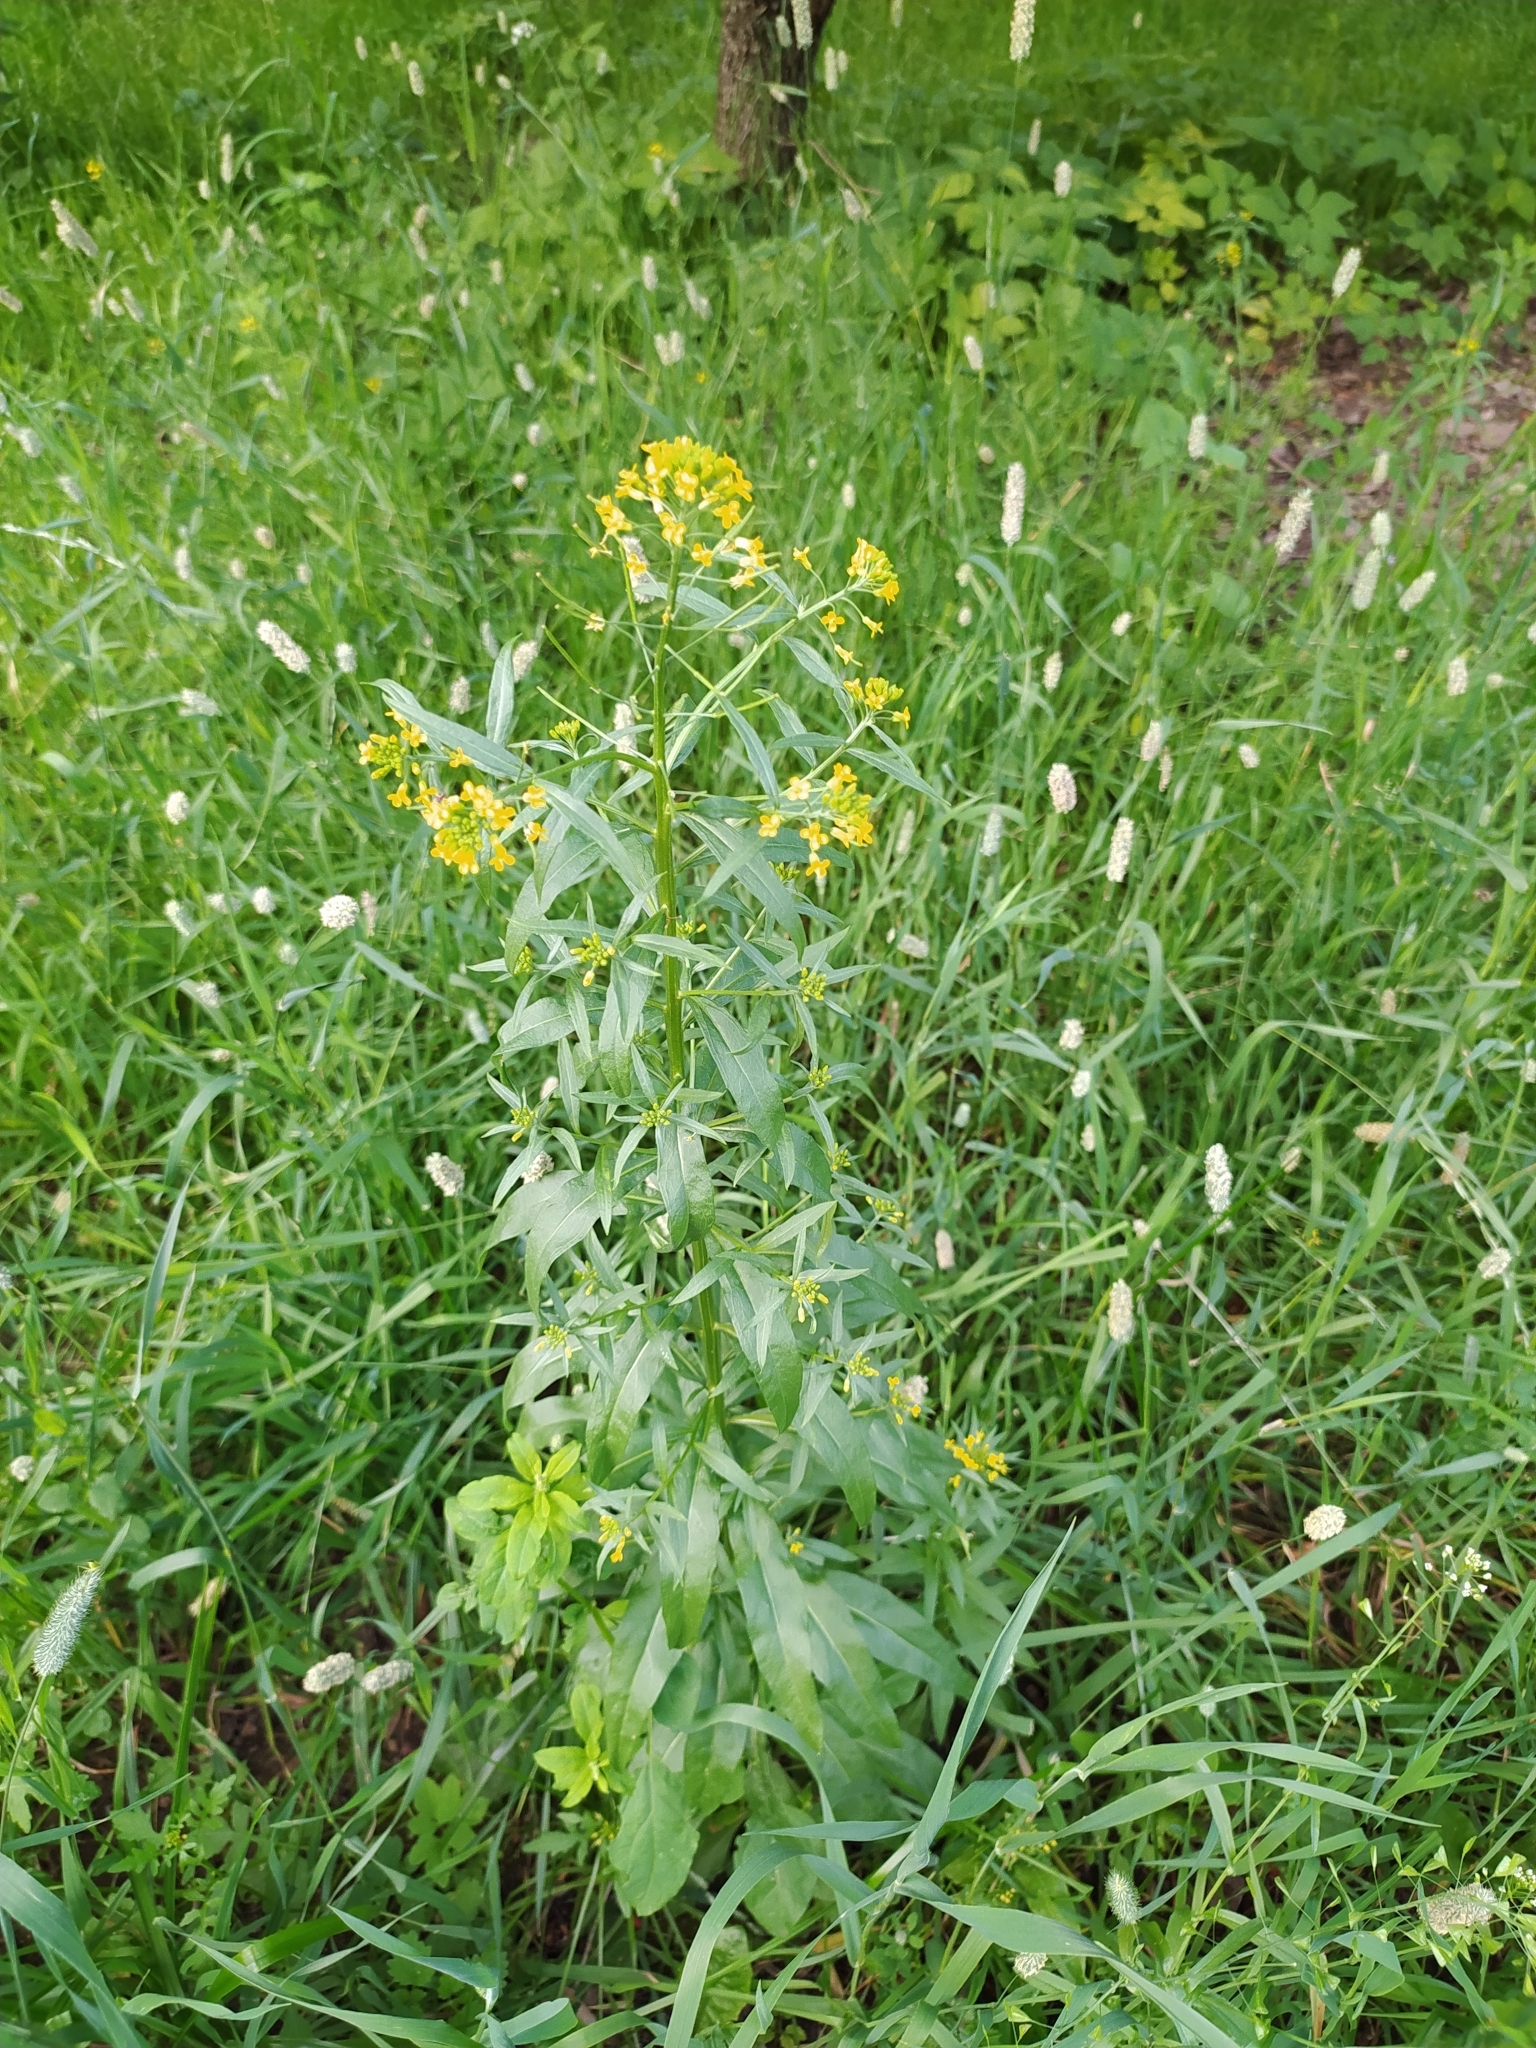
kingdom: Plantae
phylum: Tracheophyta
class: Magnoliopsida
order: Brassicales
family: Brassicaceae
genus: Erysimum
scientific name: Erysimum cheiranthoides
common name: Treacle mustard
